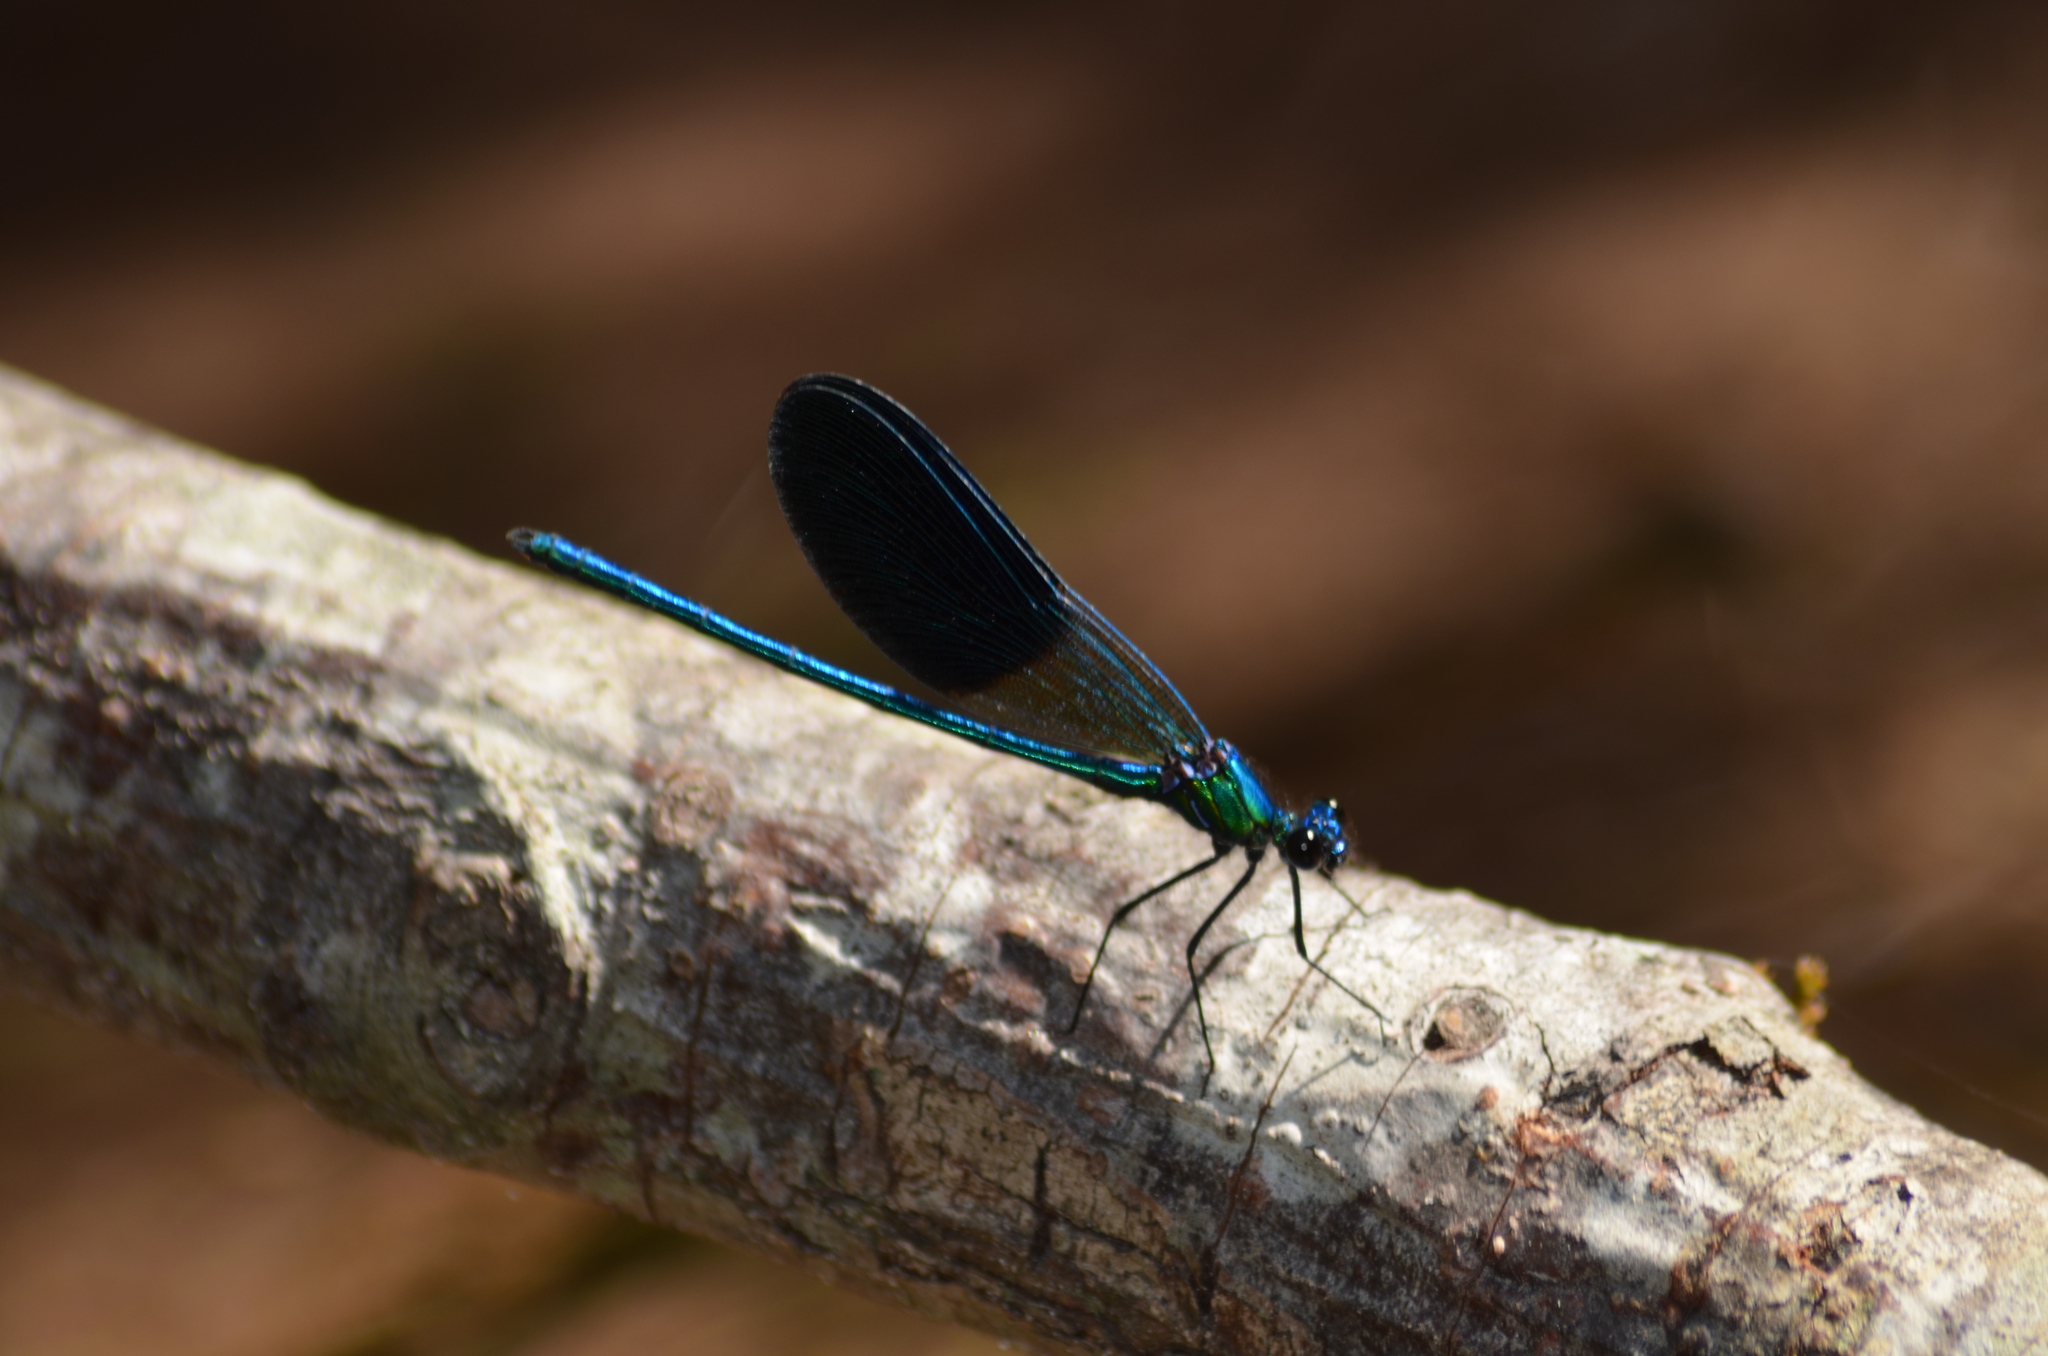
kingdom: Animalia
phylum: Arthropoda
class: Insecta
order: Odonata
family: Calopterygidae
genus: Calopteryx
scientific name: Calopteryx xanthostoma
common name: Western demoiselle
